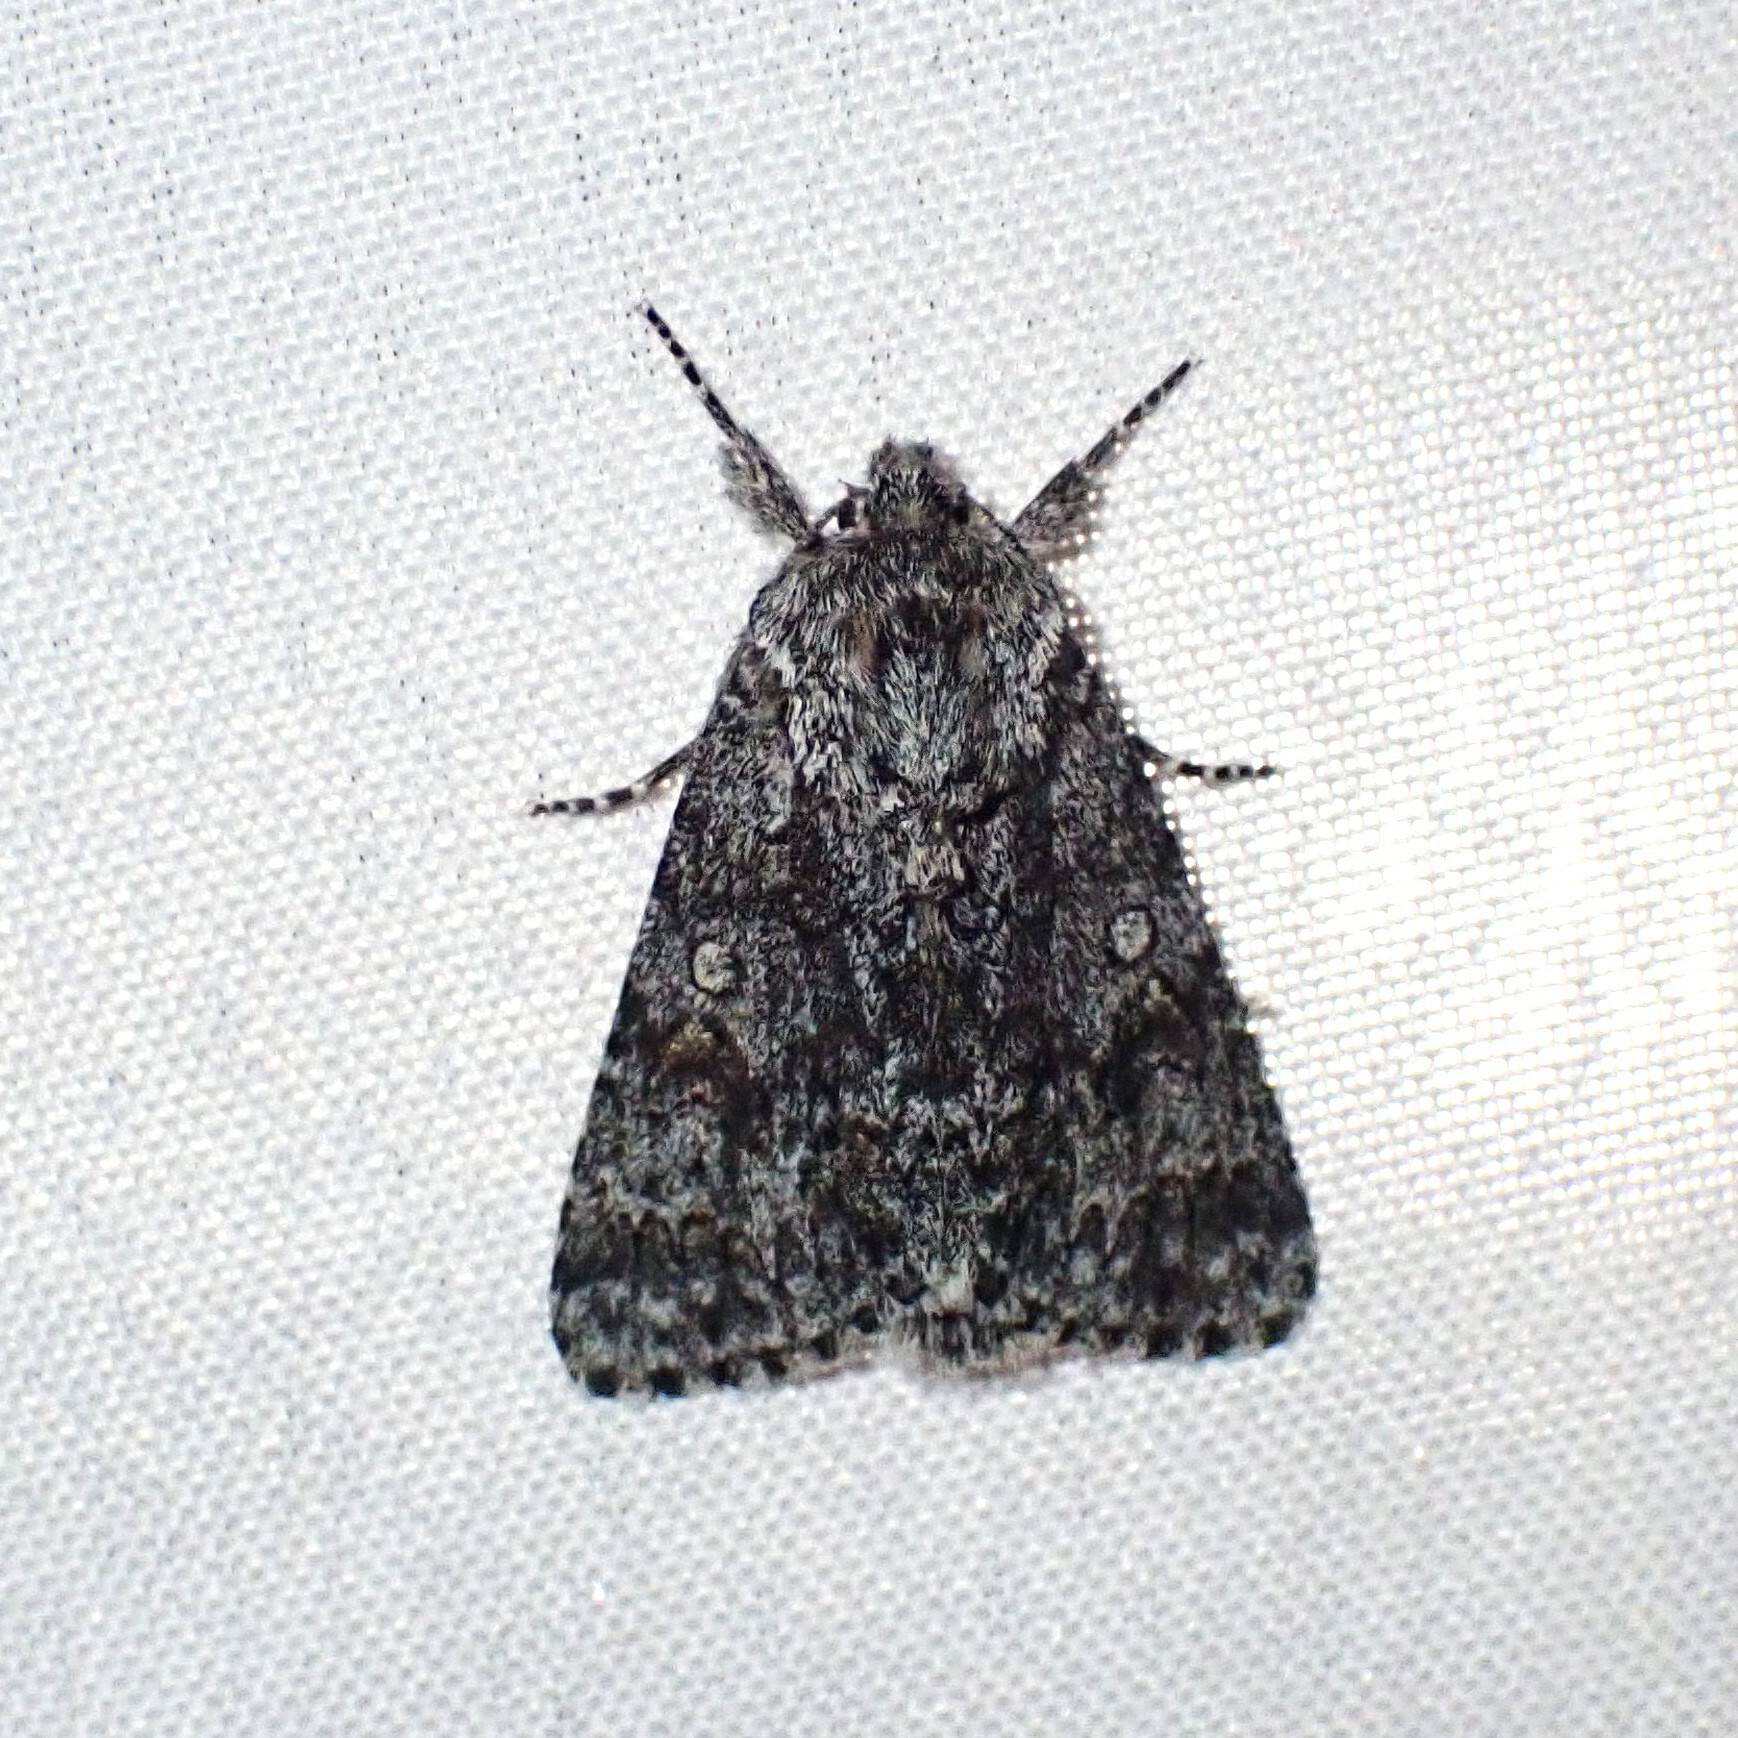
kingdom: Animalia
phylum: Arthropoda
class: Insecta
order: Lepidoptera
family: Noctuidae
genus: Acronicta
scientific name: Acronicta impressa
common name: Impressed dagger
